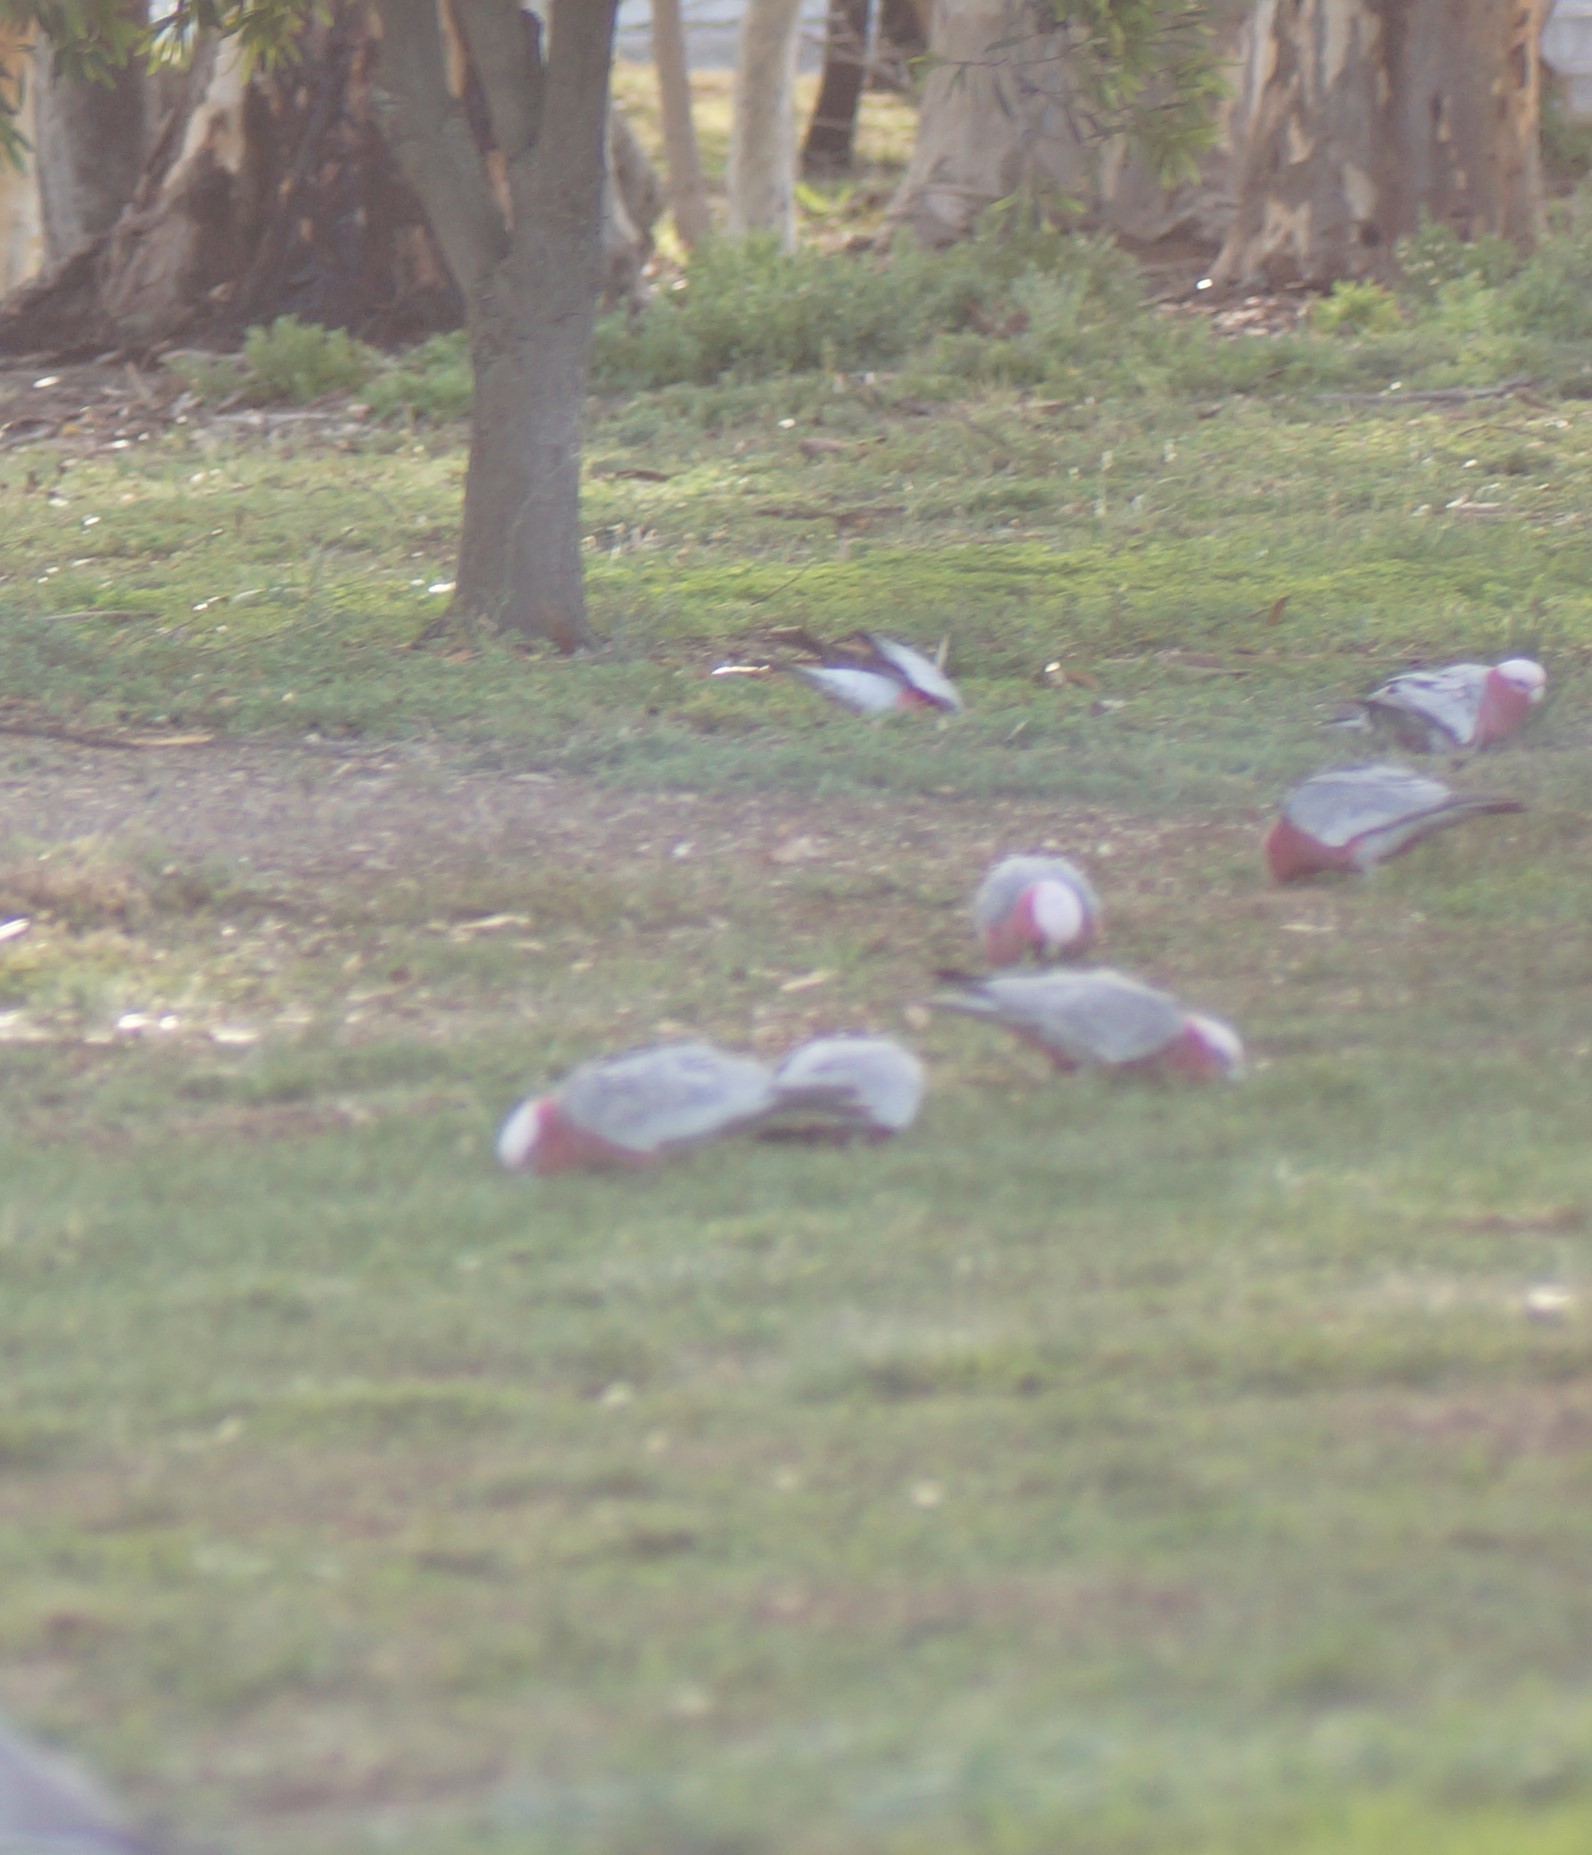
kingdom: Animalia
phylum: Chordata
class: Aves
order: Psittaciformes
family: Psittacidae
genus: Eolophus
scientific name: Eolophus roseicapilla
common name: Galah
